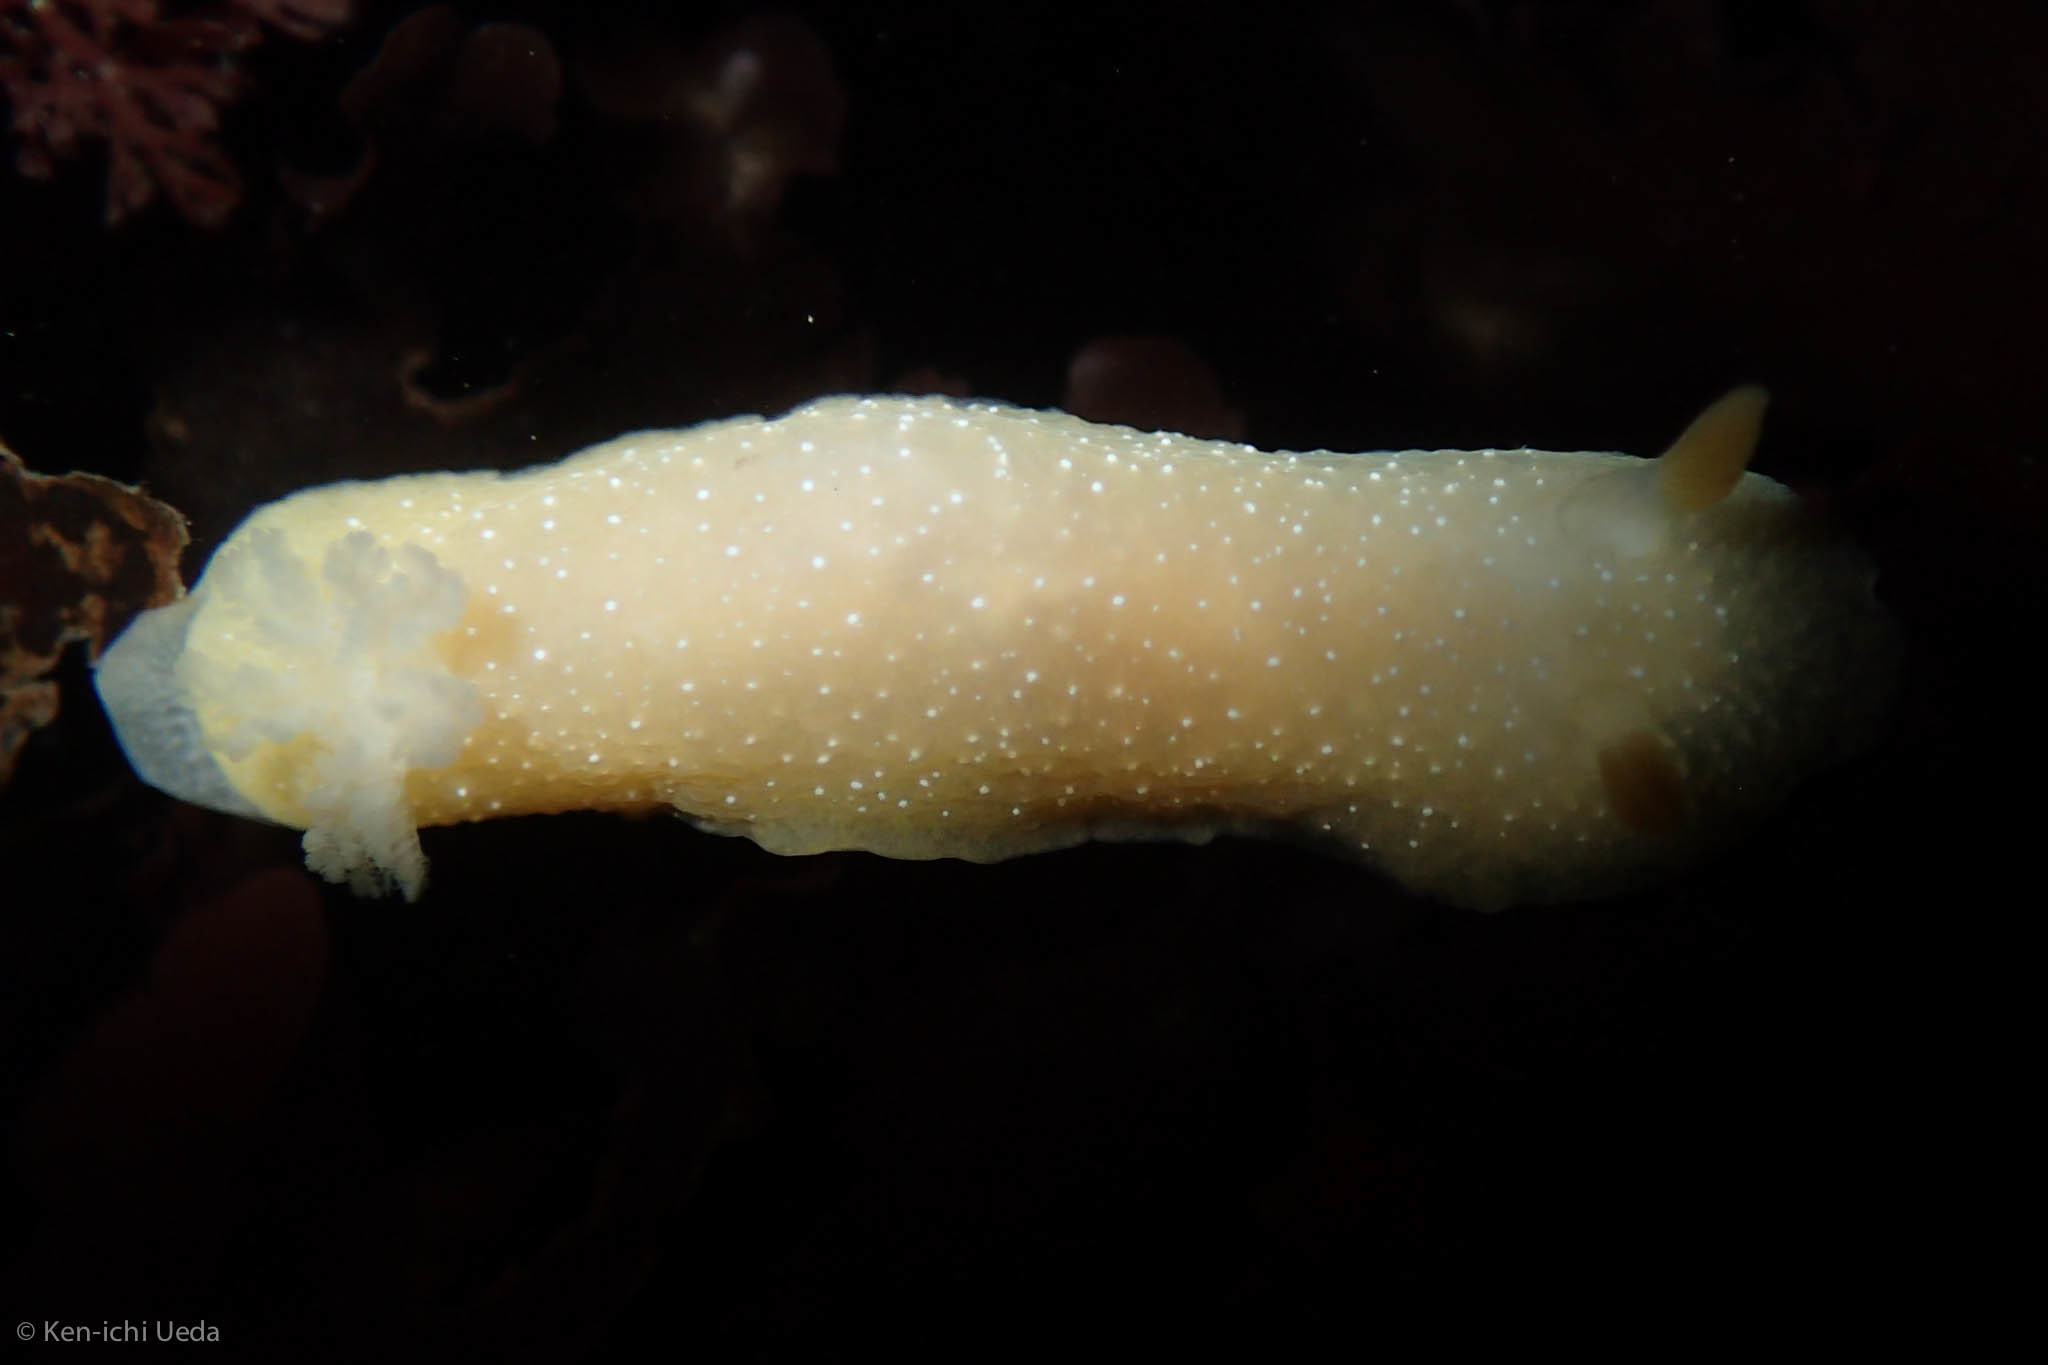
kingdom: Animalia
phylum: Mollusca
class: Gastropoda
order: Nudibranchia
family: Dendrodorididae
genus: Doriopsilla
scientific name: Doriopsilla fulva
